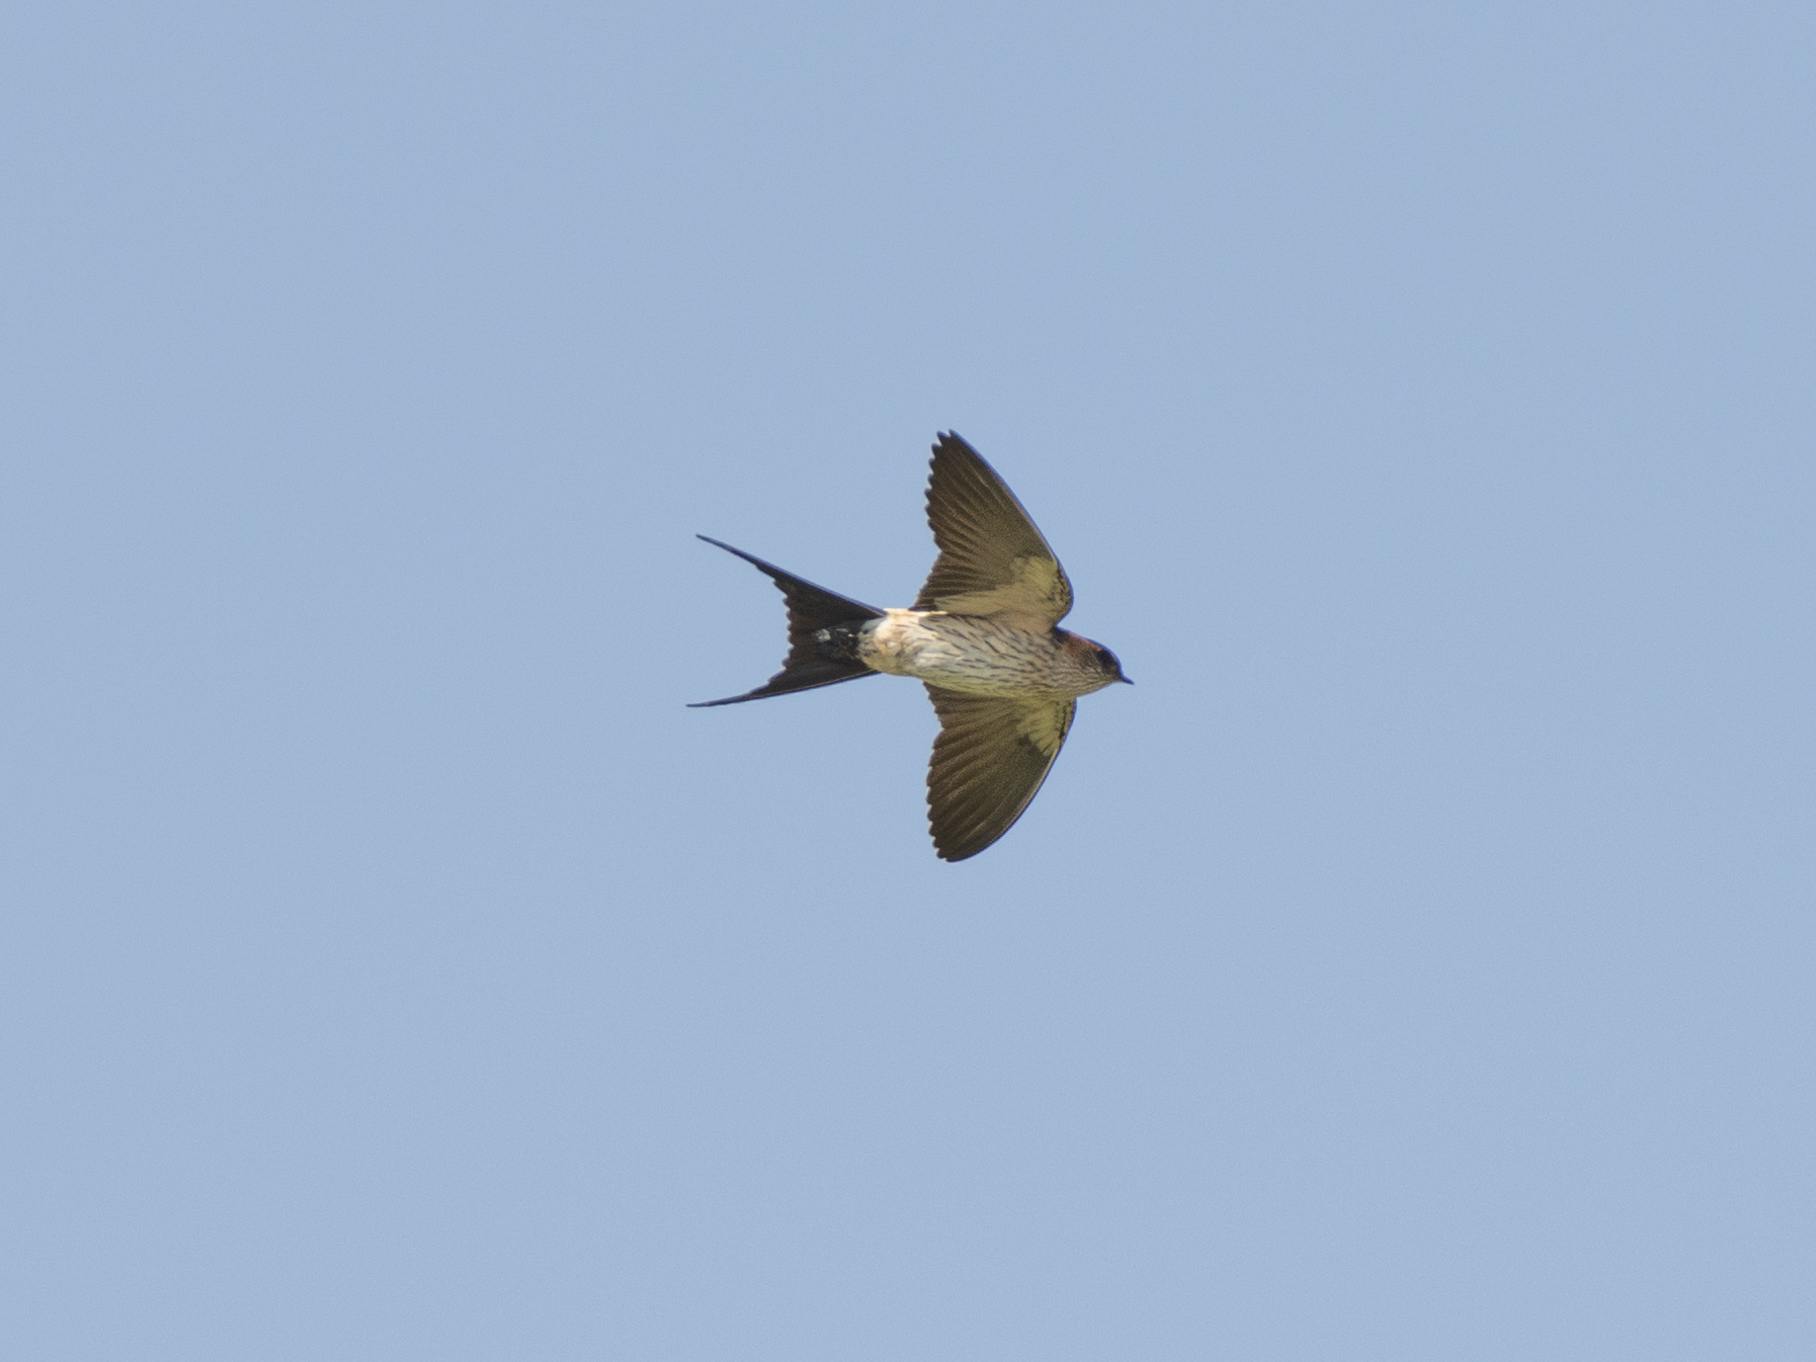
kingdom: Animalia
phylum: Chordata
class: Aves
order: Passeriformes
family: Hirundinidae
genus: Cecropis
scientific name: Cecropis daurica
